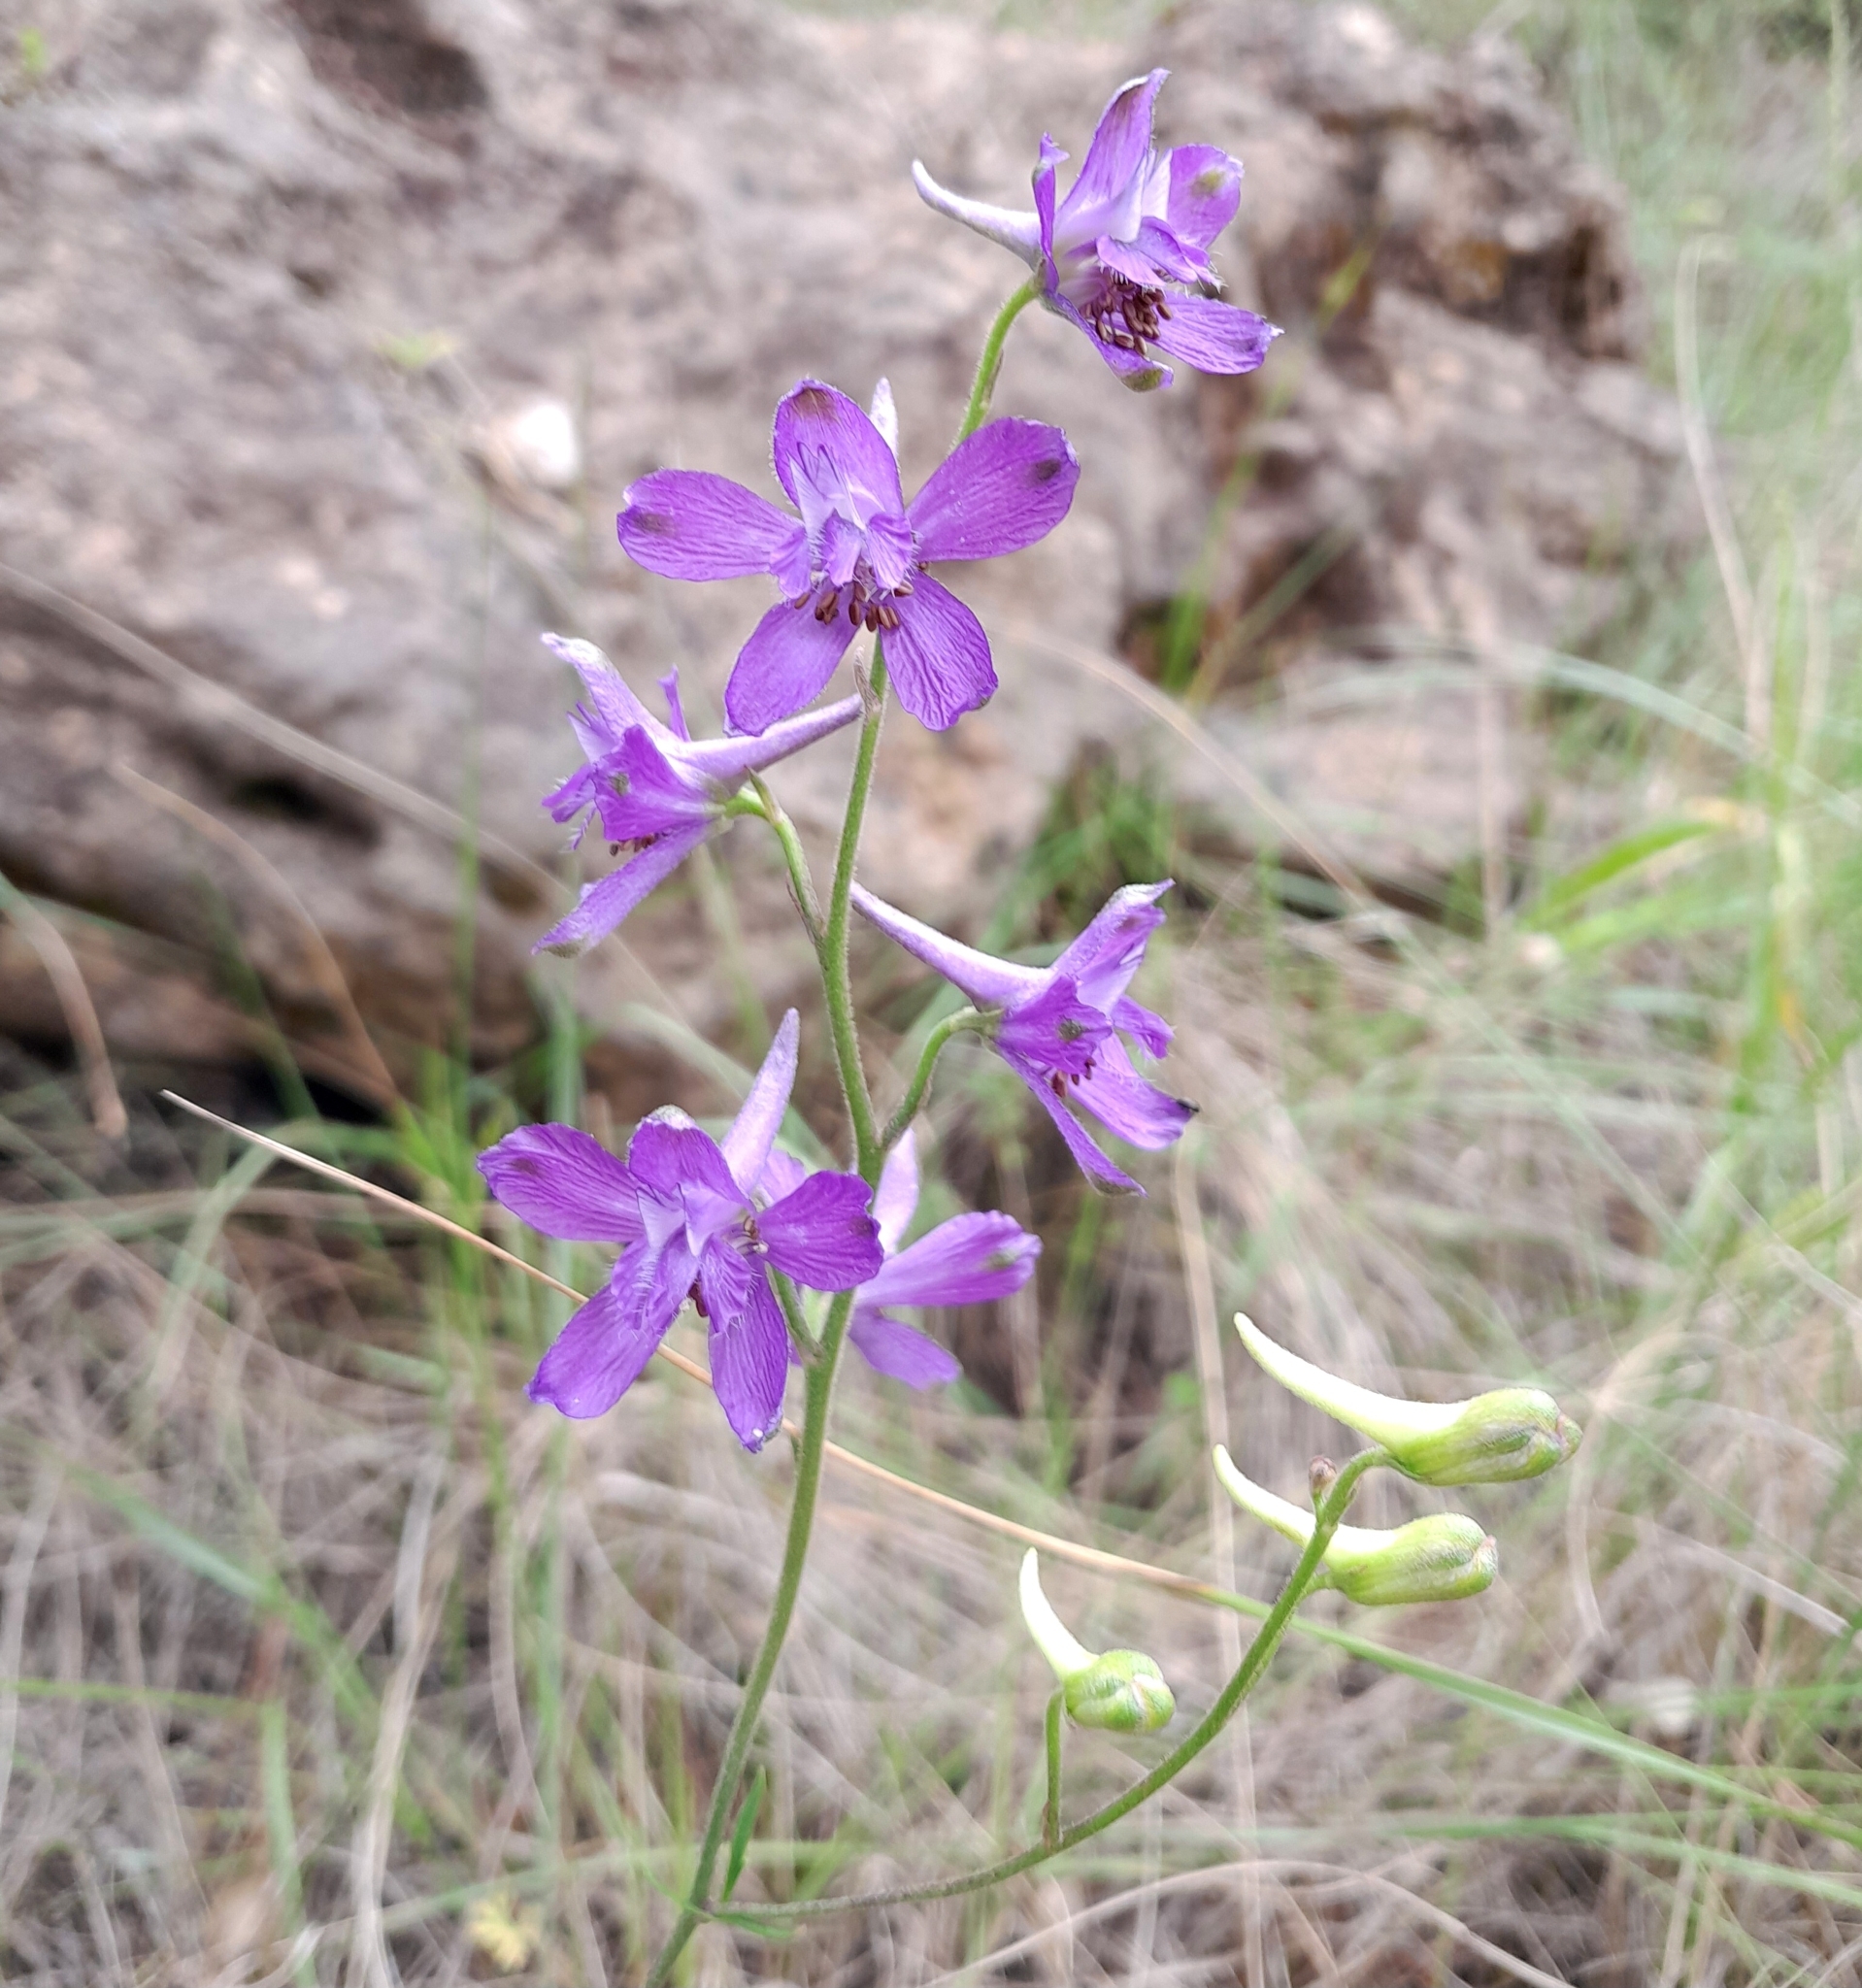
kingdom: Plantae
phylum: Tracheophyta
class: Magnoliopsida
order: Ranunculales
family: Ranunculaceae
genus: Delphinium
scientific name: Delphinium pentagynum
